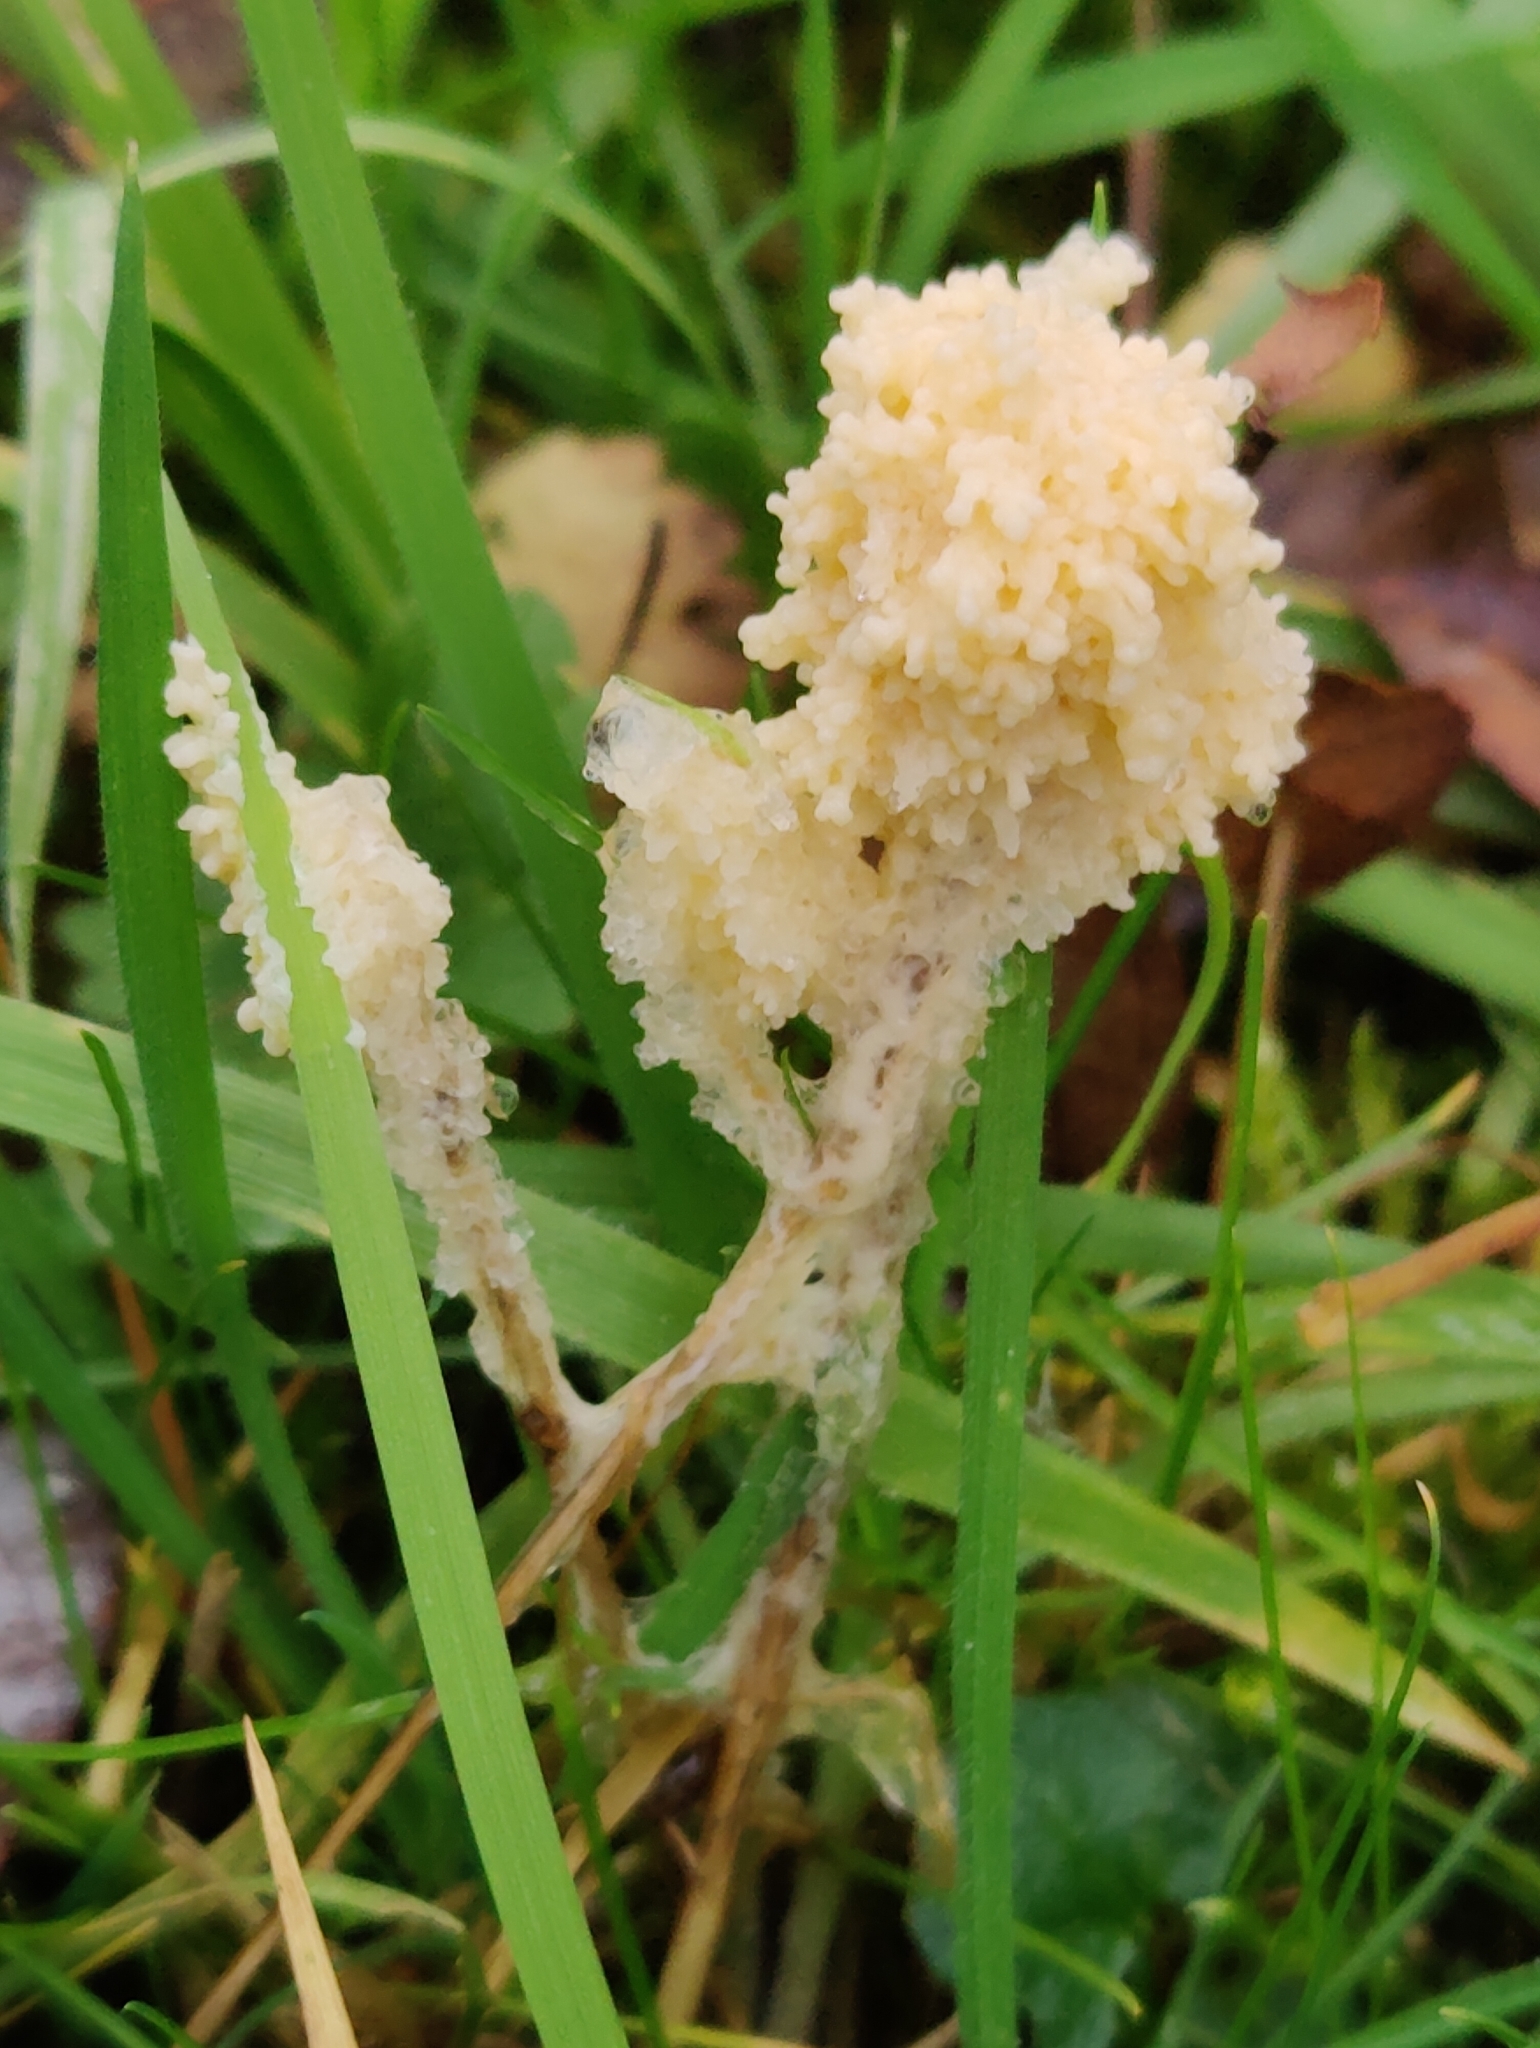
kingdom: Protozoa
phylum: Mycetozoa
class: Myxomycetes
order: Physarales
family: Physaraceae
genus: Didymium
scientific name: Didymium
